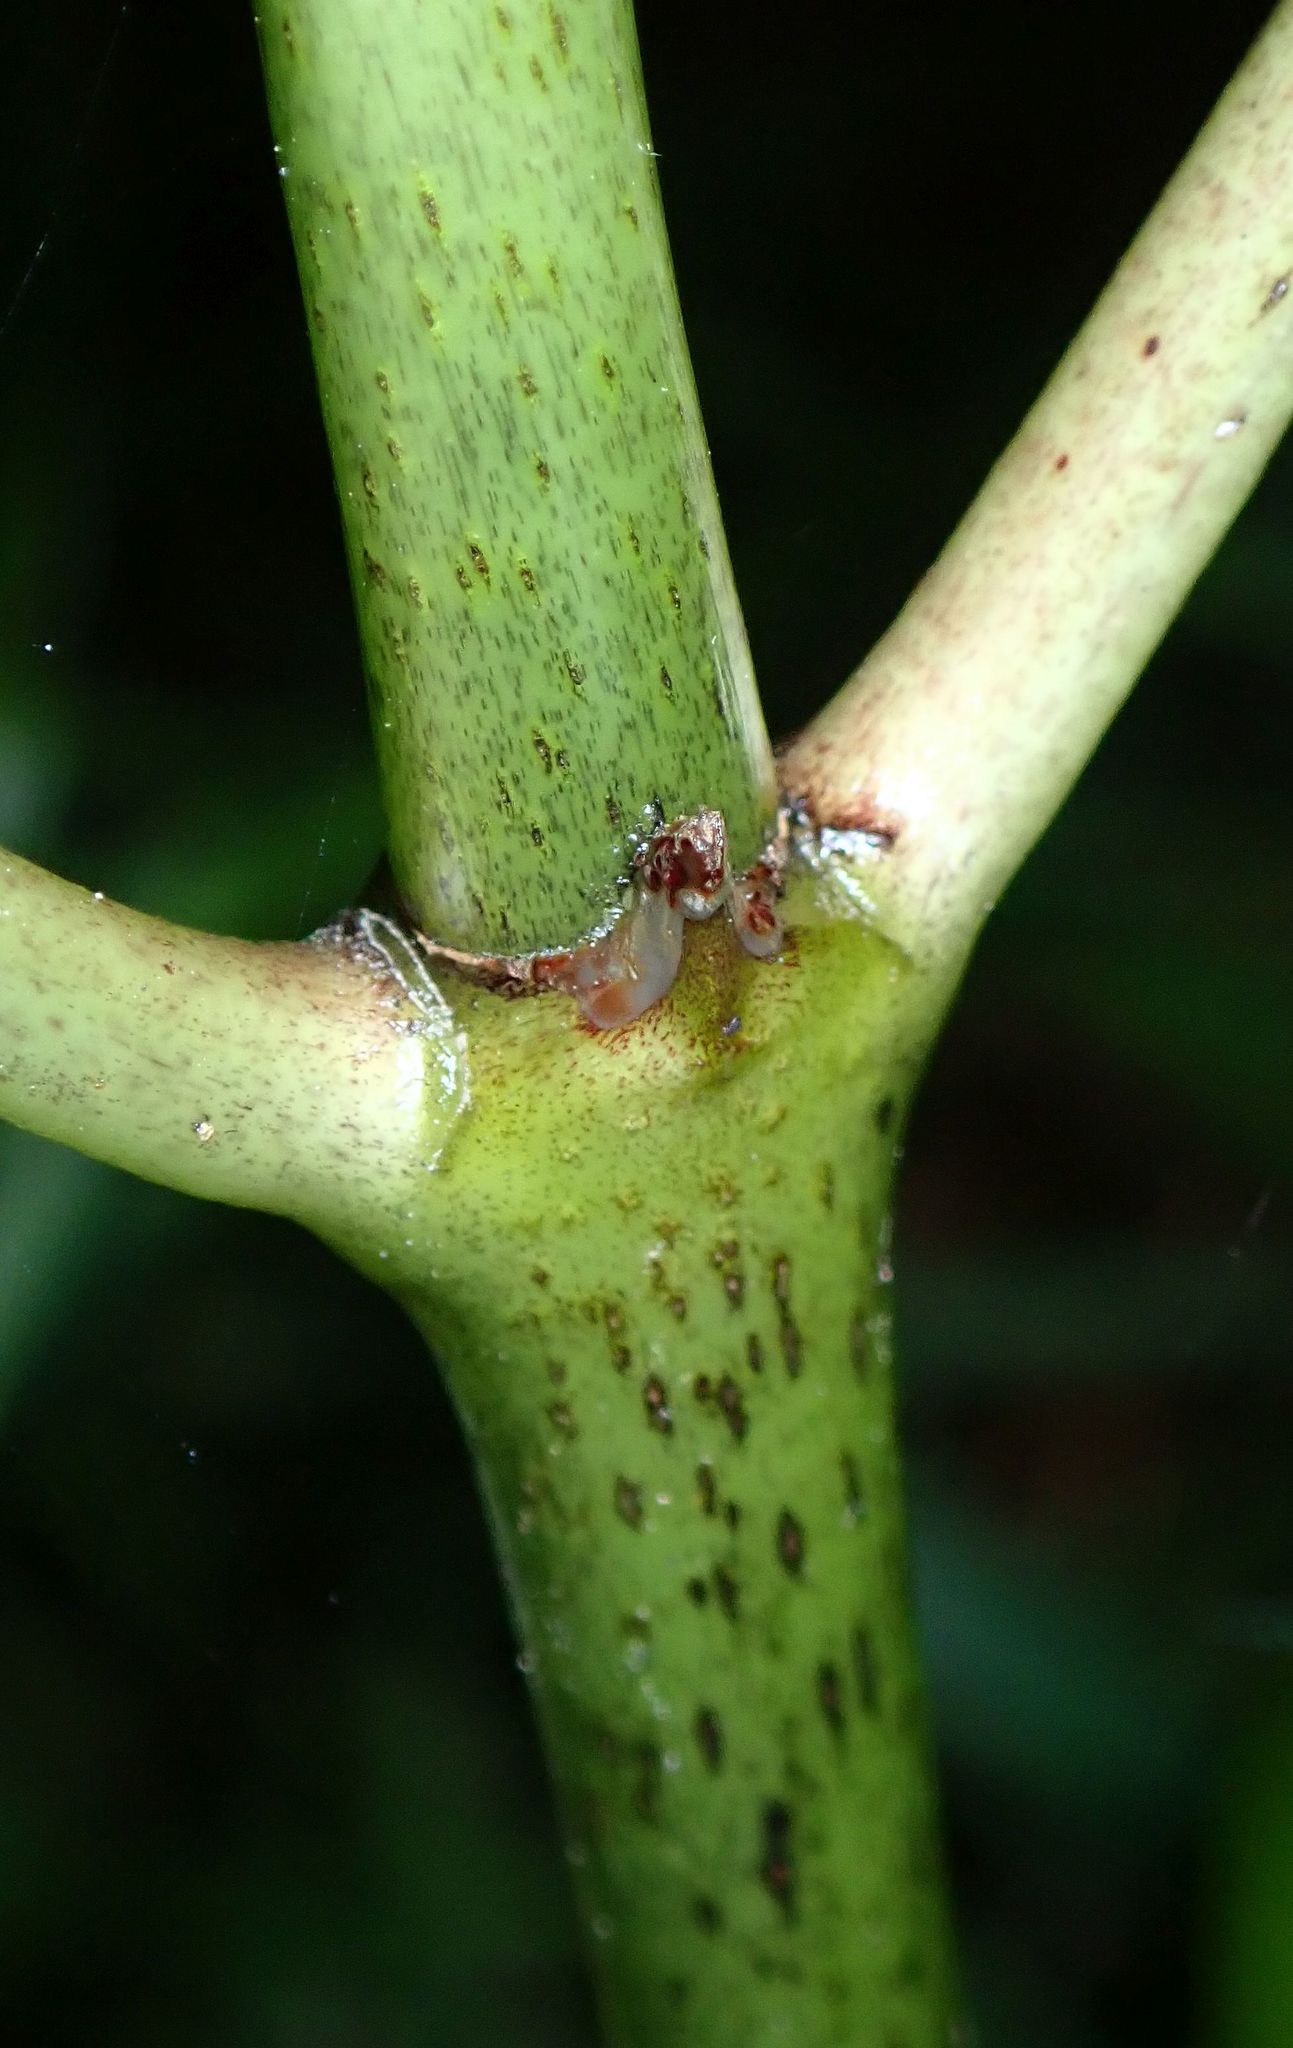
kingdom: Plantae
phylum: Tracheophyta
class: Magnoliopsida
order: Gentianales
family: Rubiaceae
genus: Coprosma
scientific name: Coprosma autumnalis
